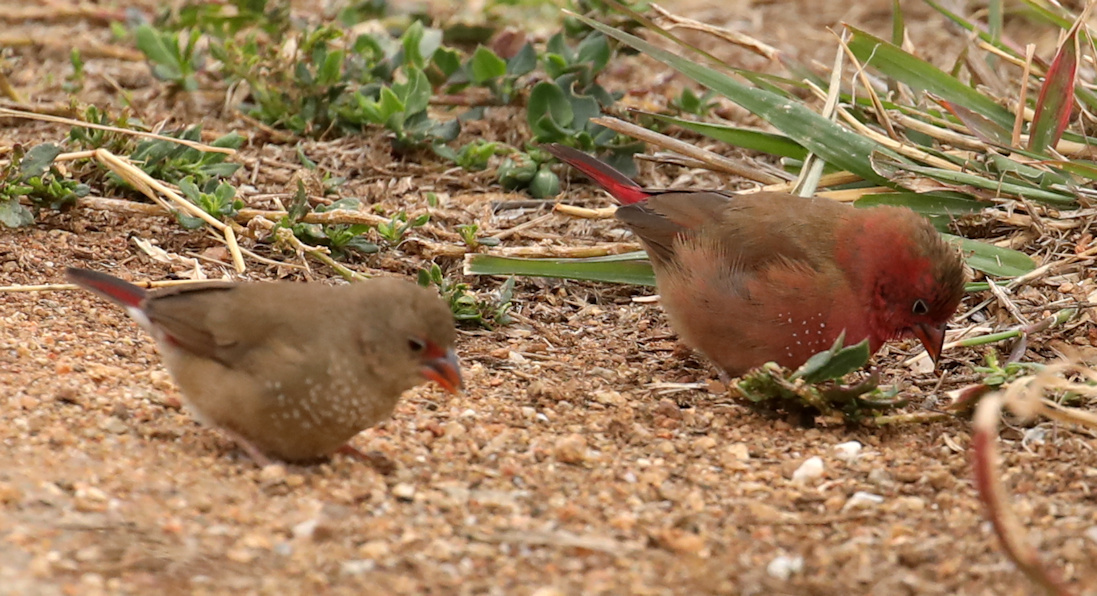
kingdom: Animalia
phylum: Chordata
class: Aves
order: Passeriformes
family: Estrildidae
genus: Lagonosticta
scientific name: Lagonosticta senegala
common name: Red-billed firefinch
